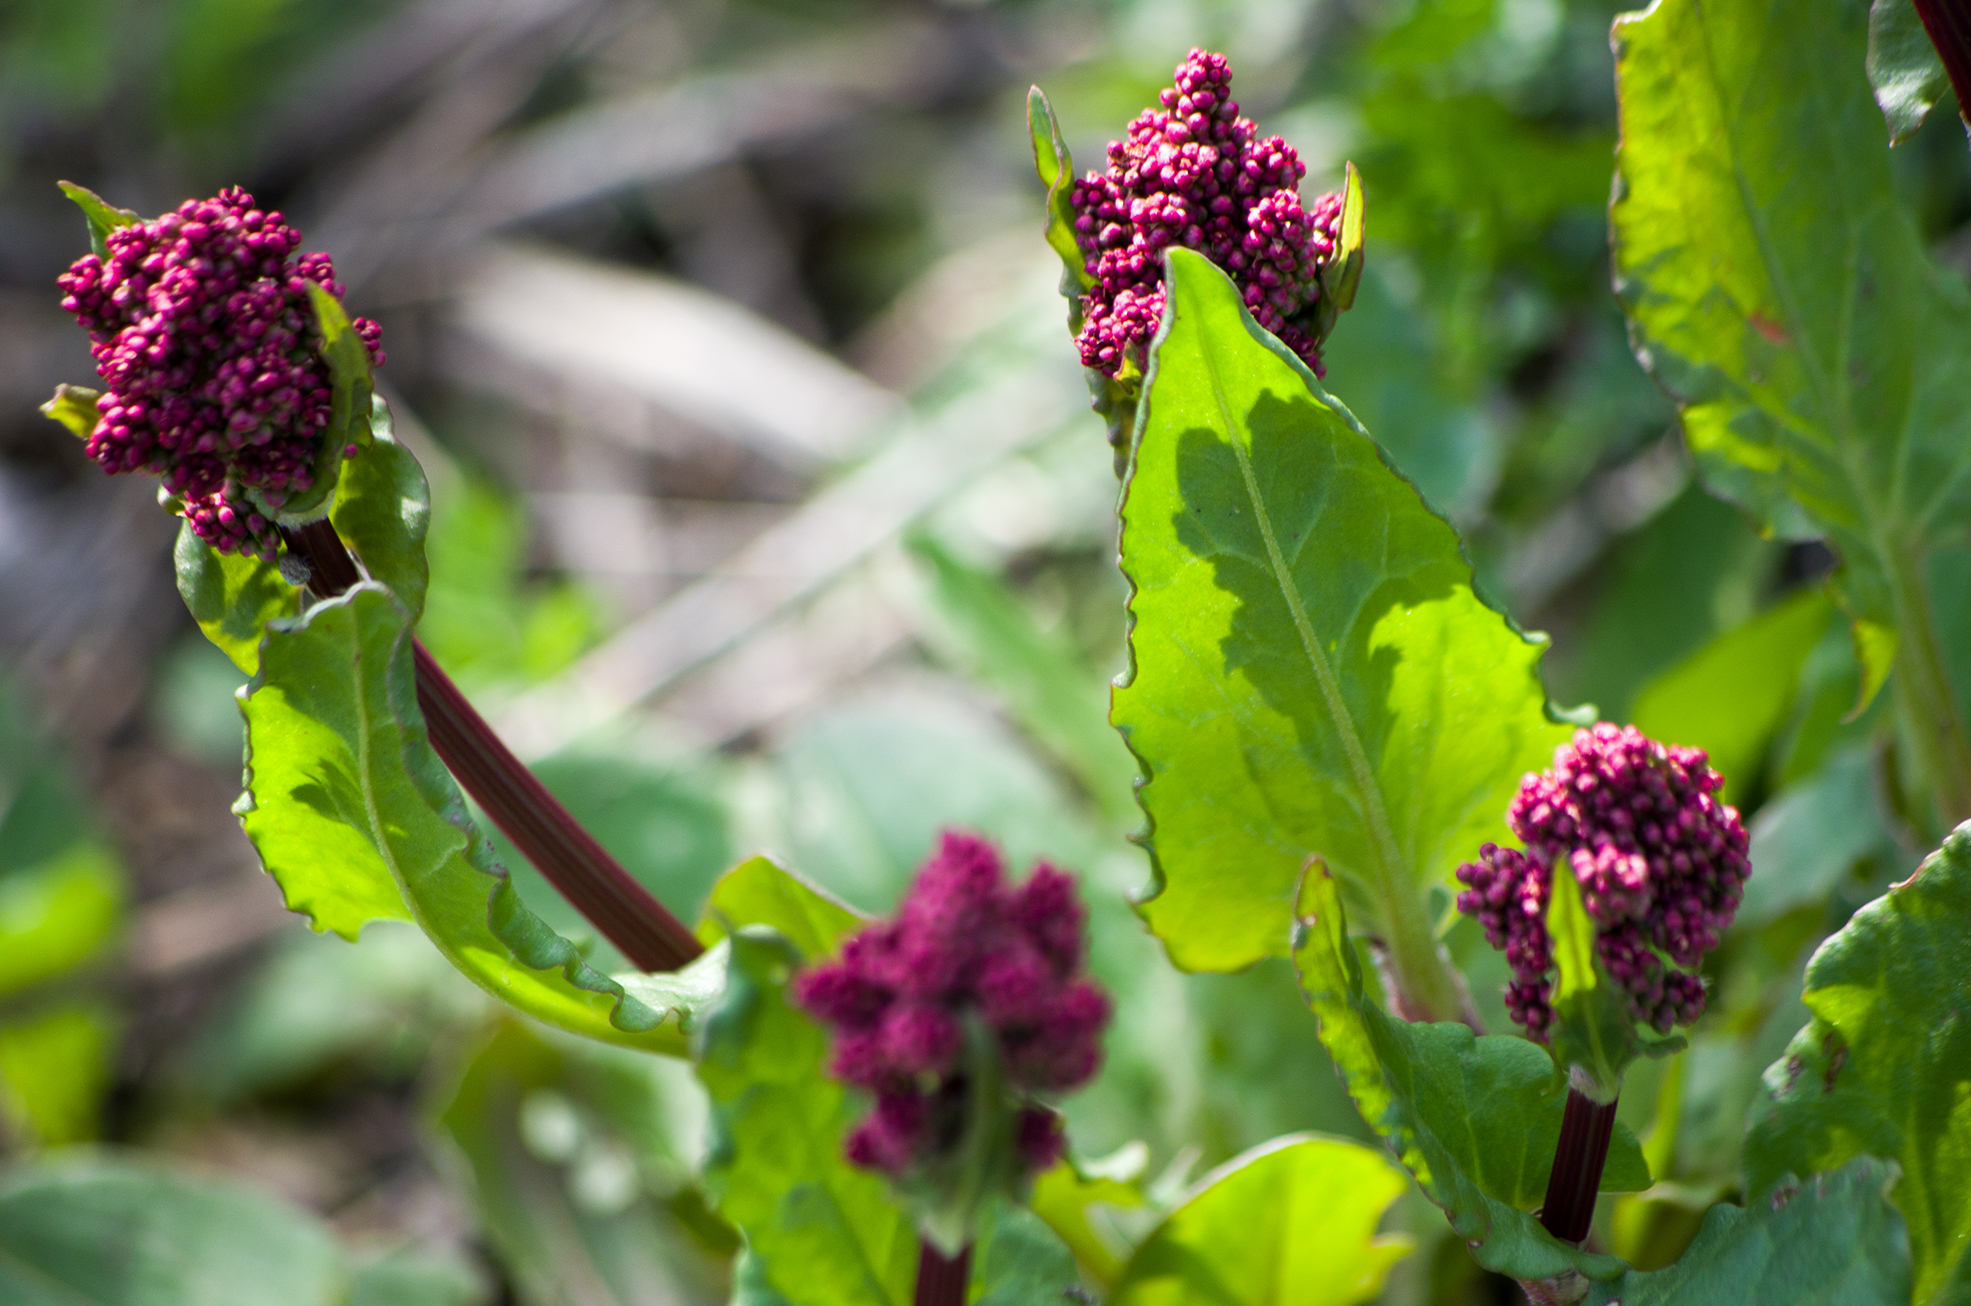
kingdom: Plantae
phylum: Tracheophyta
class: Magnoliopsida
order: Caryophyllales
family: Polygonaceae
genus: Rumex
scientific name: Rumex acetosa
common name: Garden sorrel
